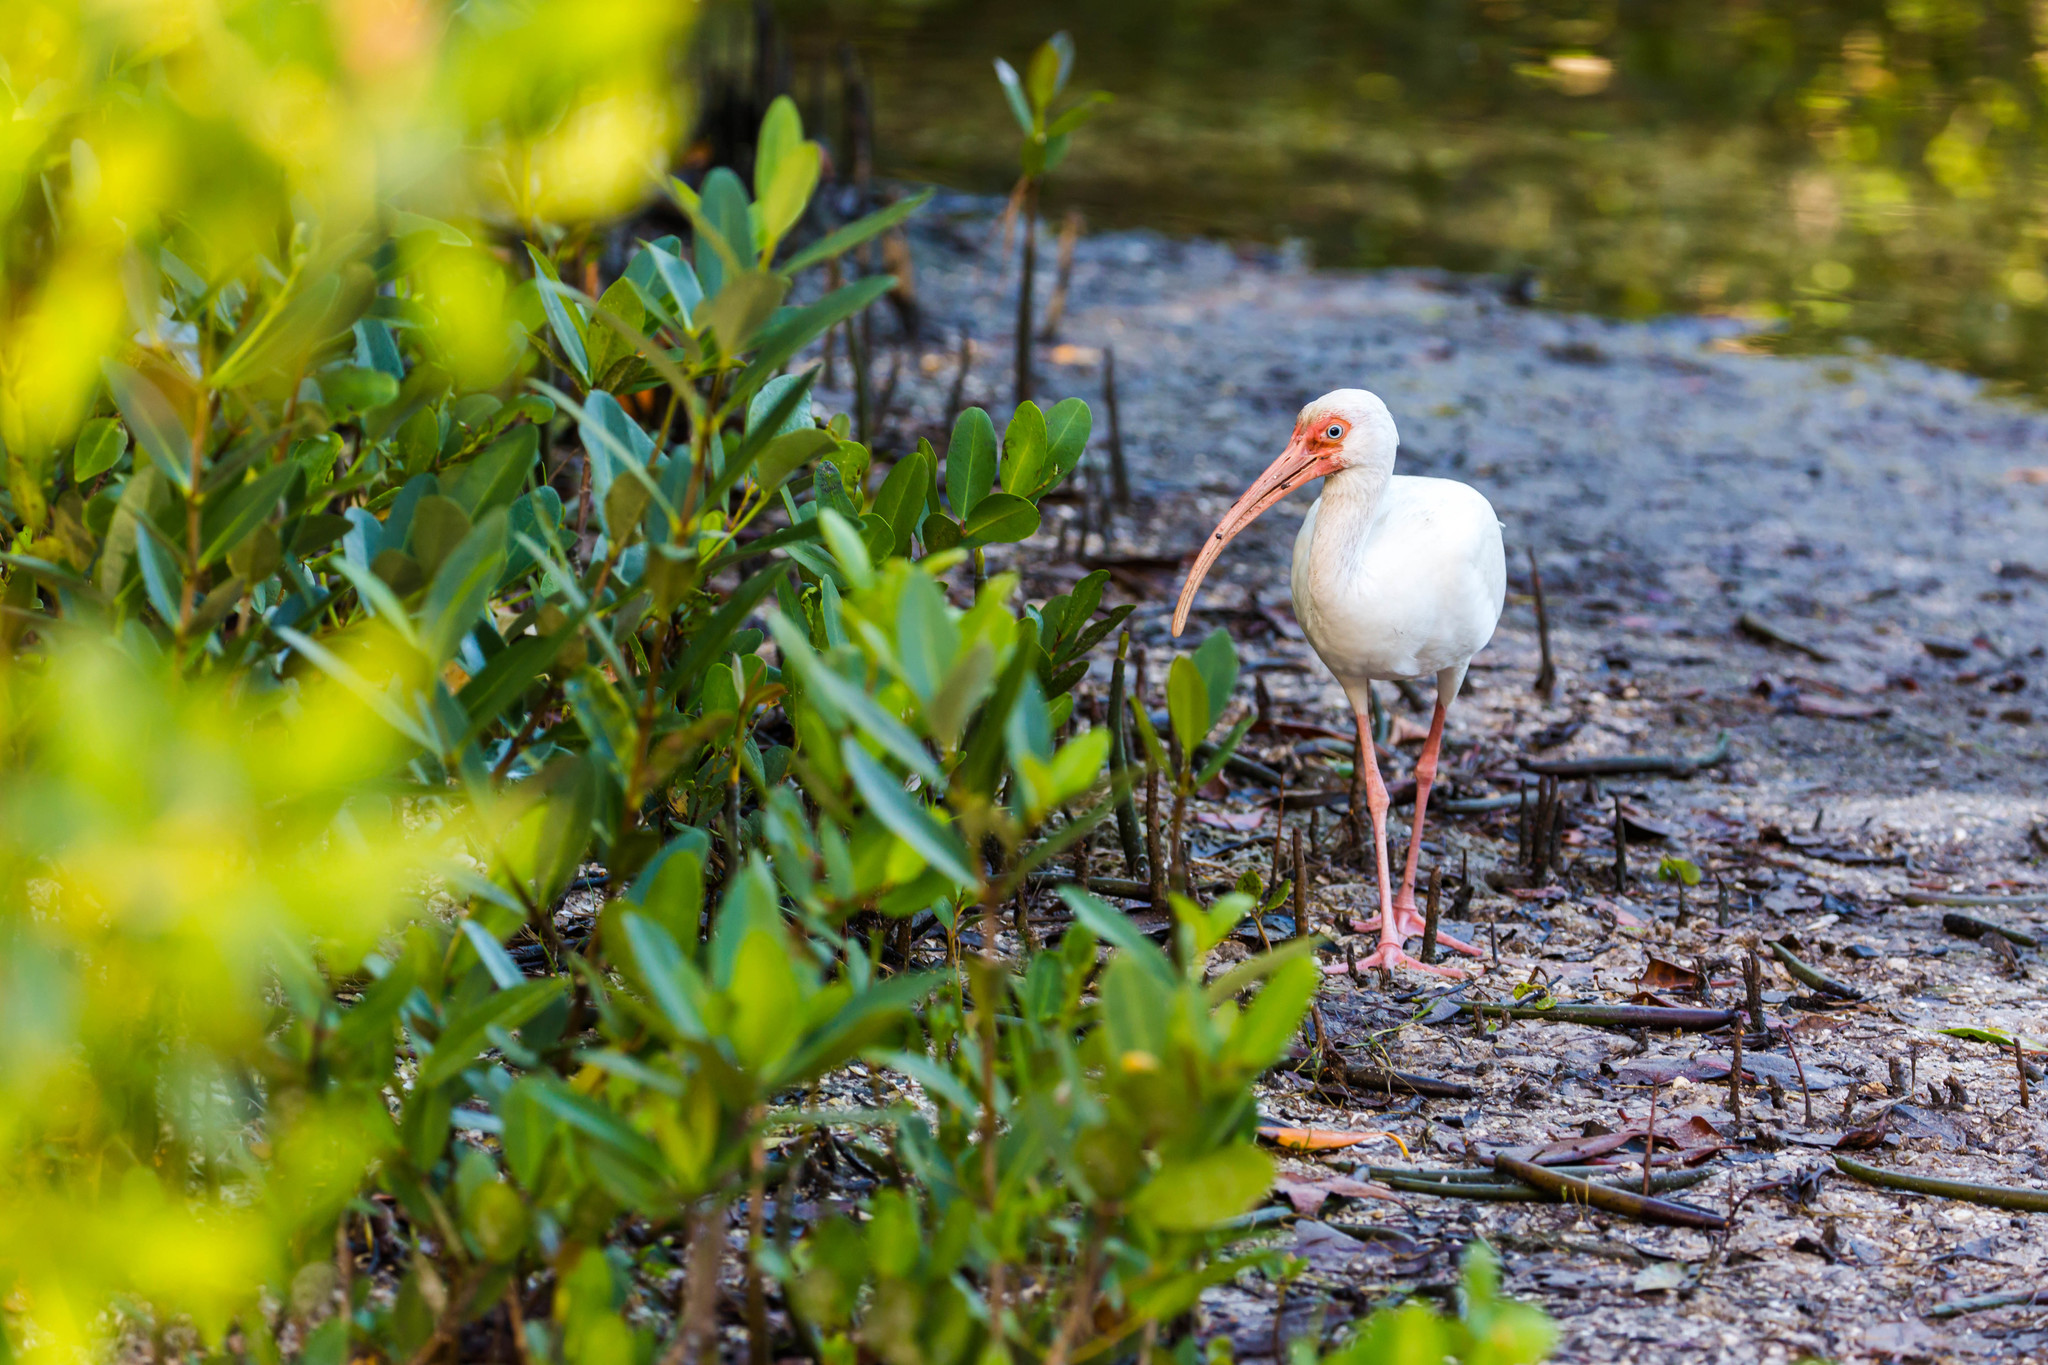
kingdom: Animalia
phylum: Chordata
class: Aves
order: Pelecaniformes
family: Threskiornithidae
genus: Eudocimus
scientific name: Eudocimus albus
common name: White ibis
